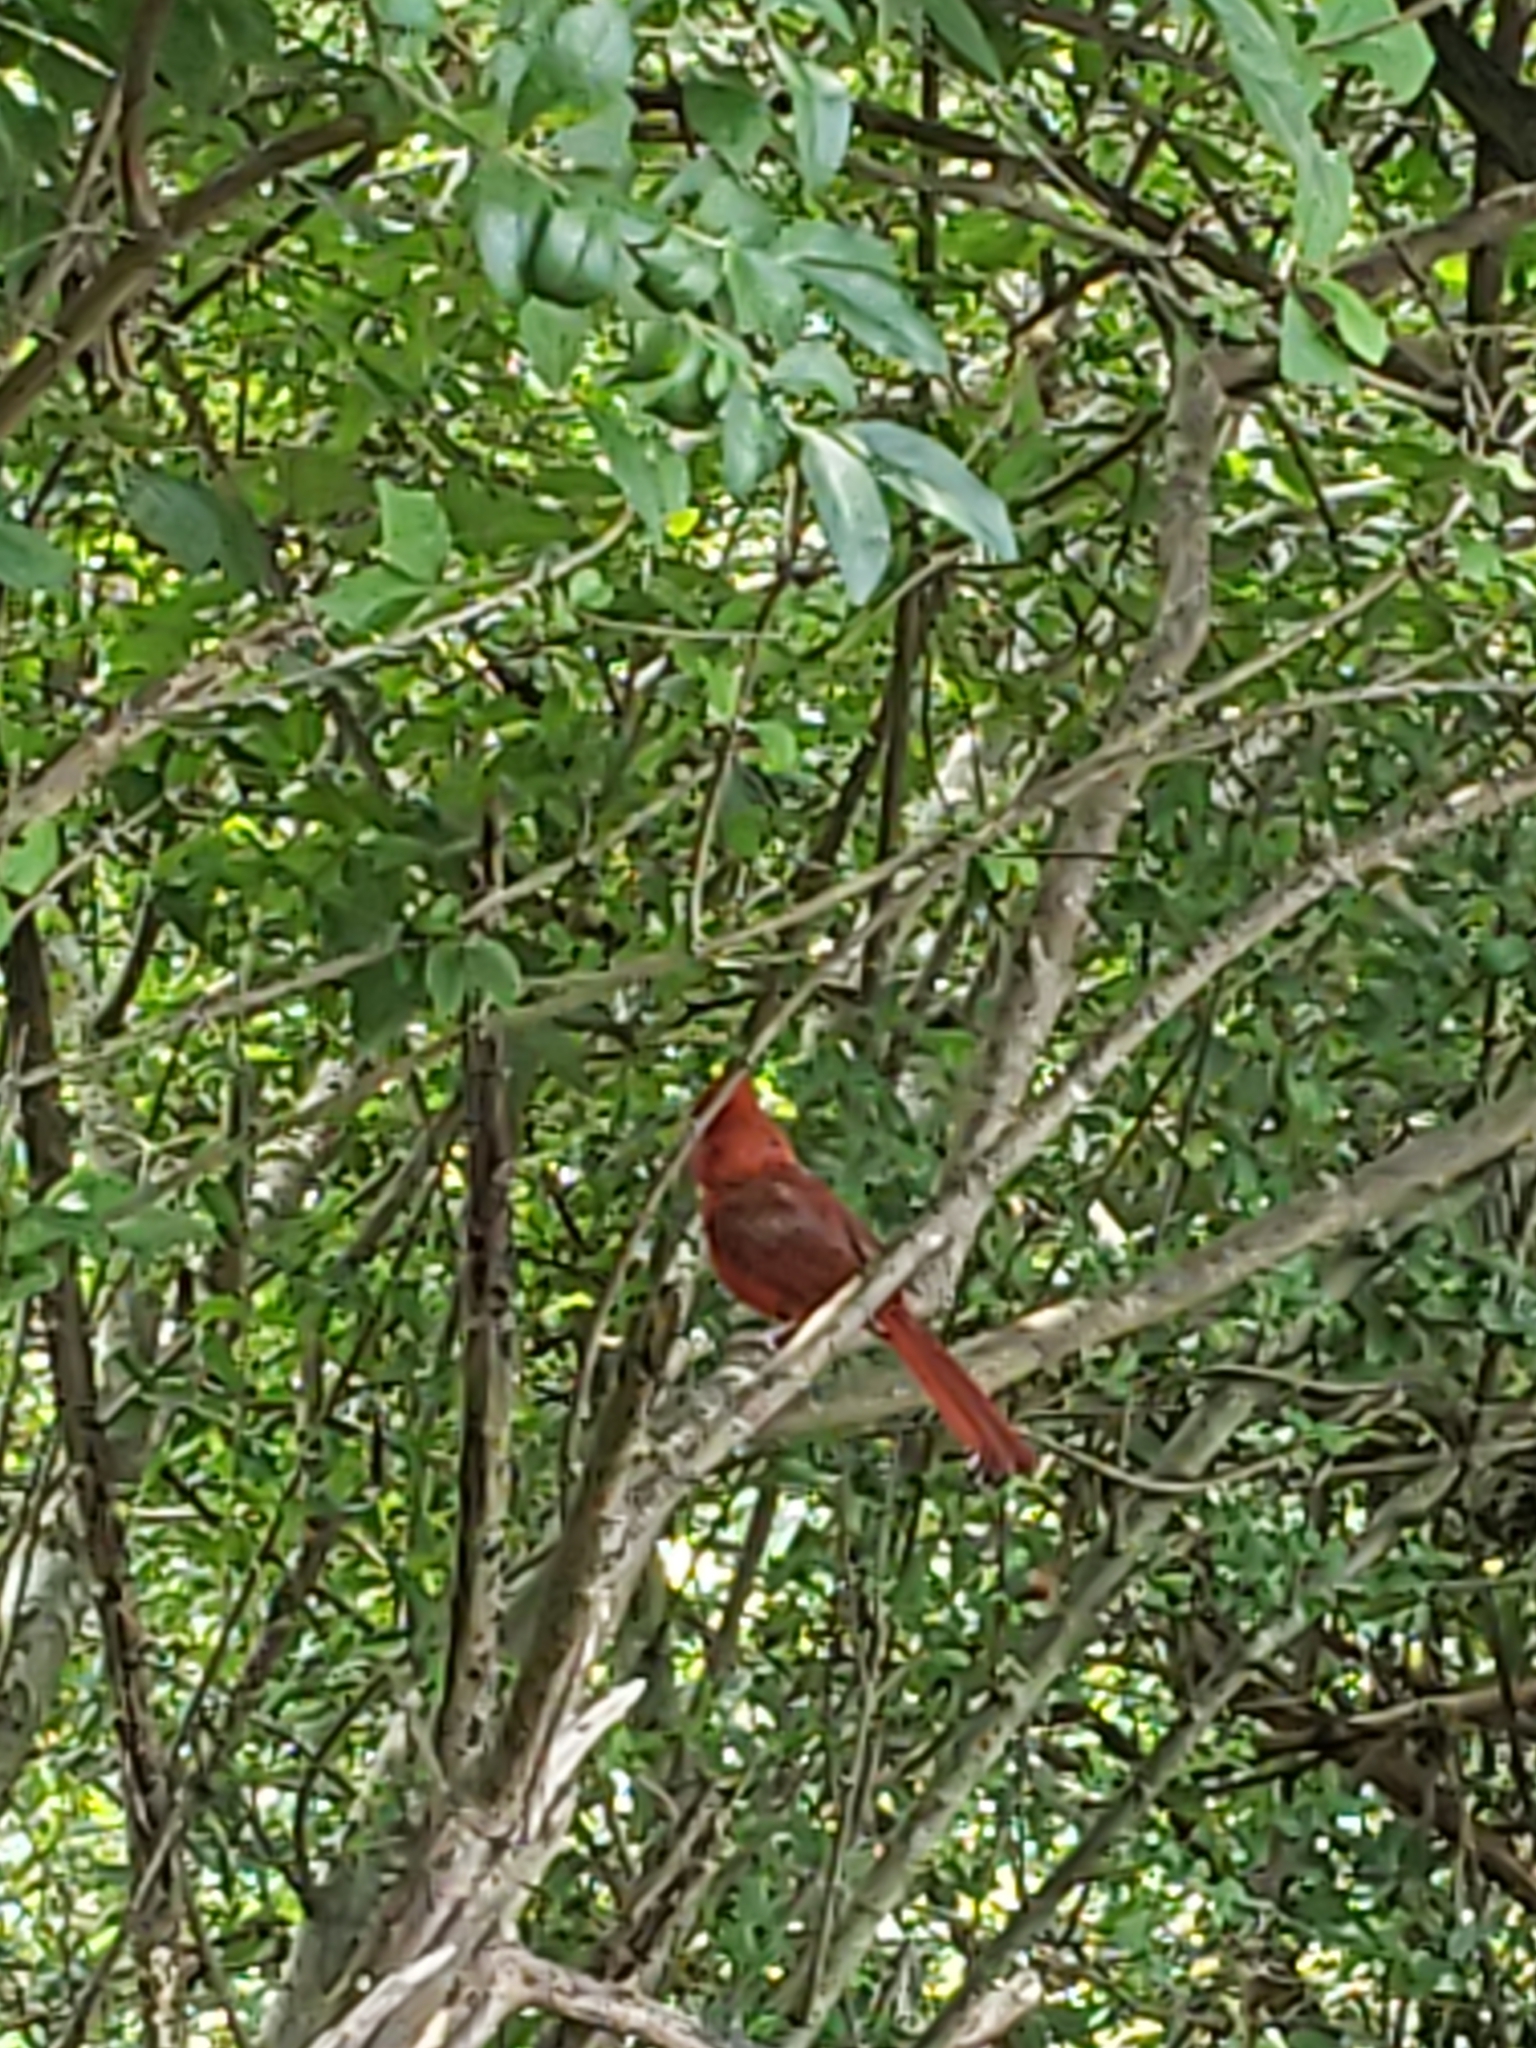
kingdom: Animalia
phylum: Chordata
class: Aves
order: Passeriformes
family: Cardinalidae
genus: Cardinalis
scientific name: Cardinalis cardinalis
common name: Northern cardinal
